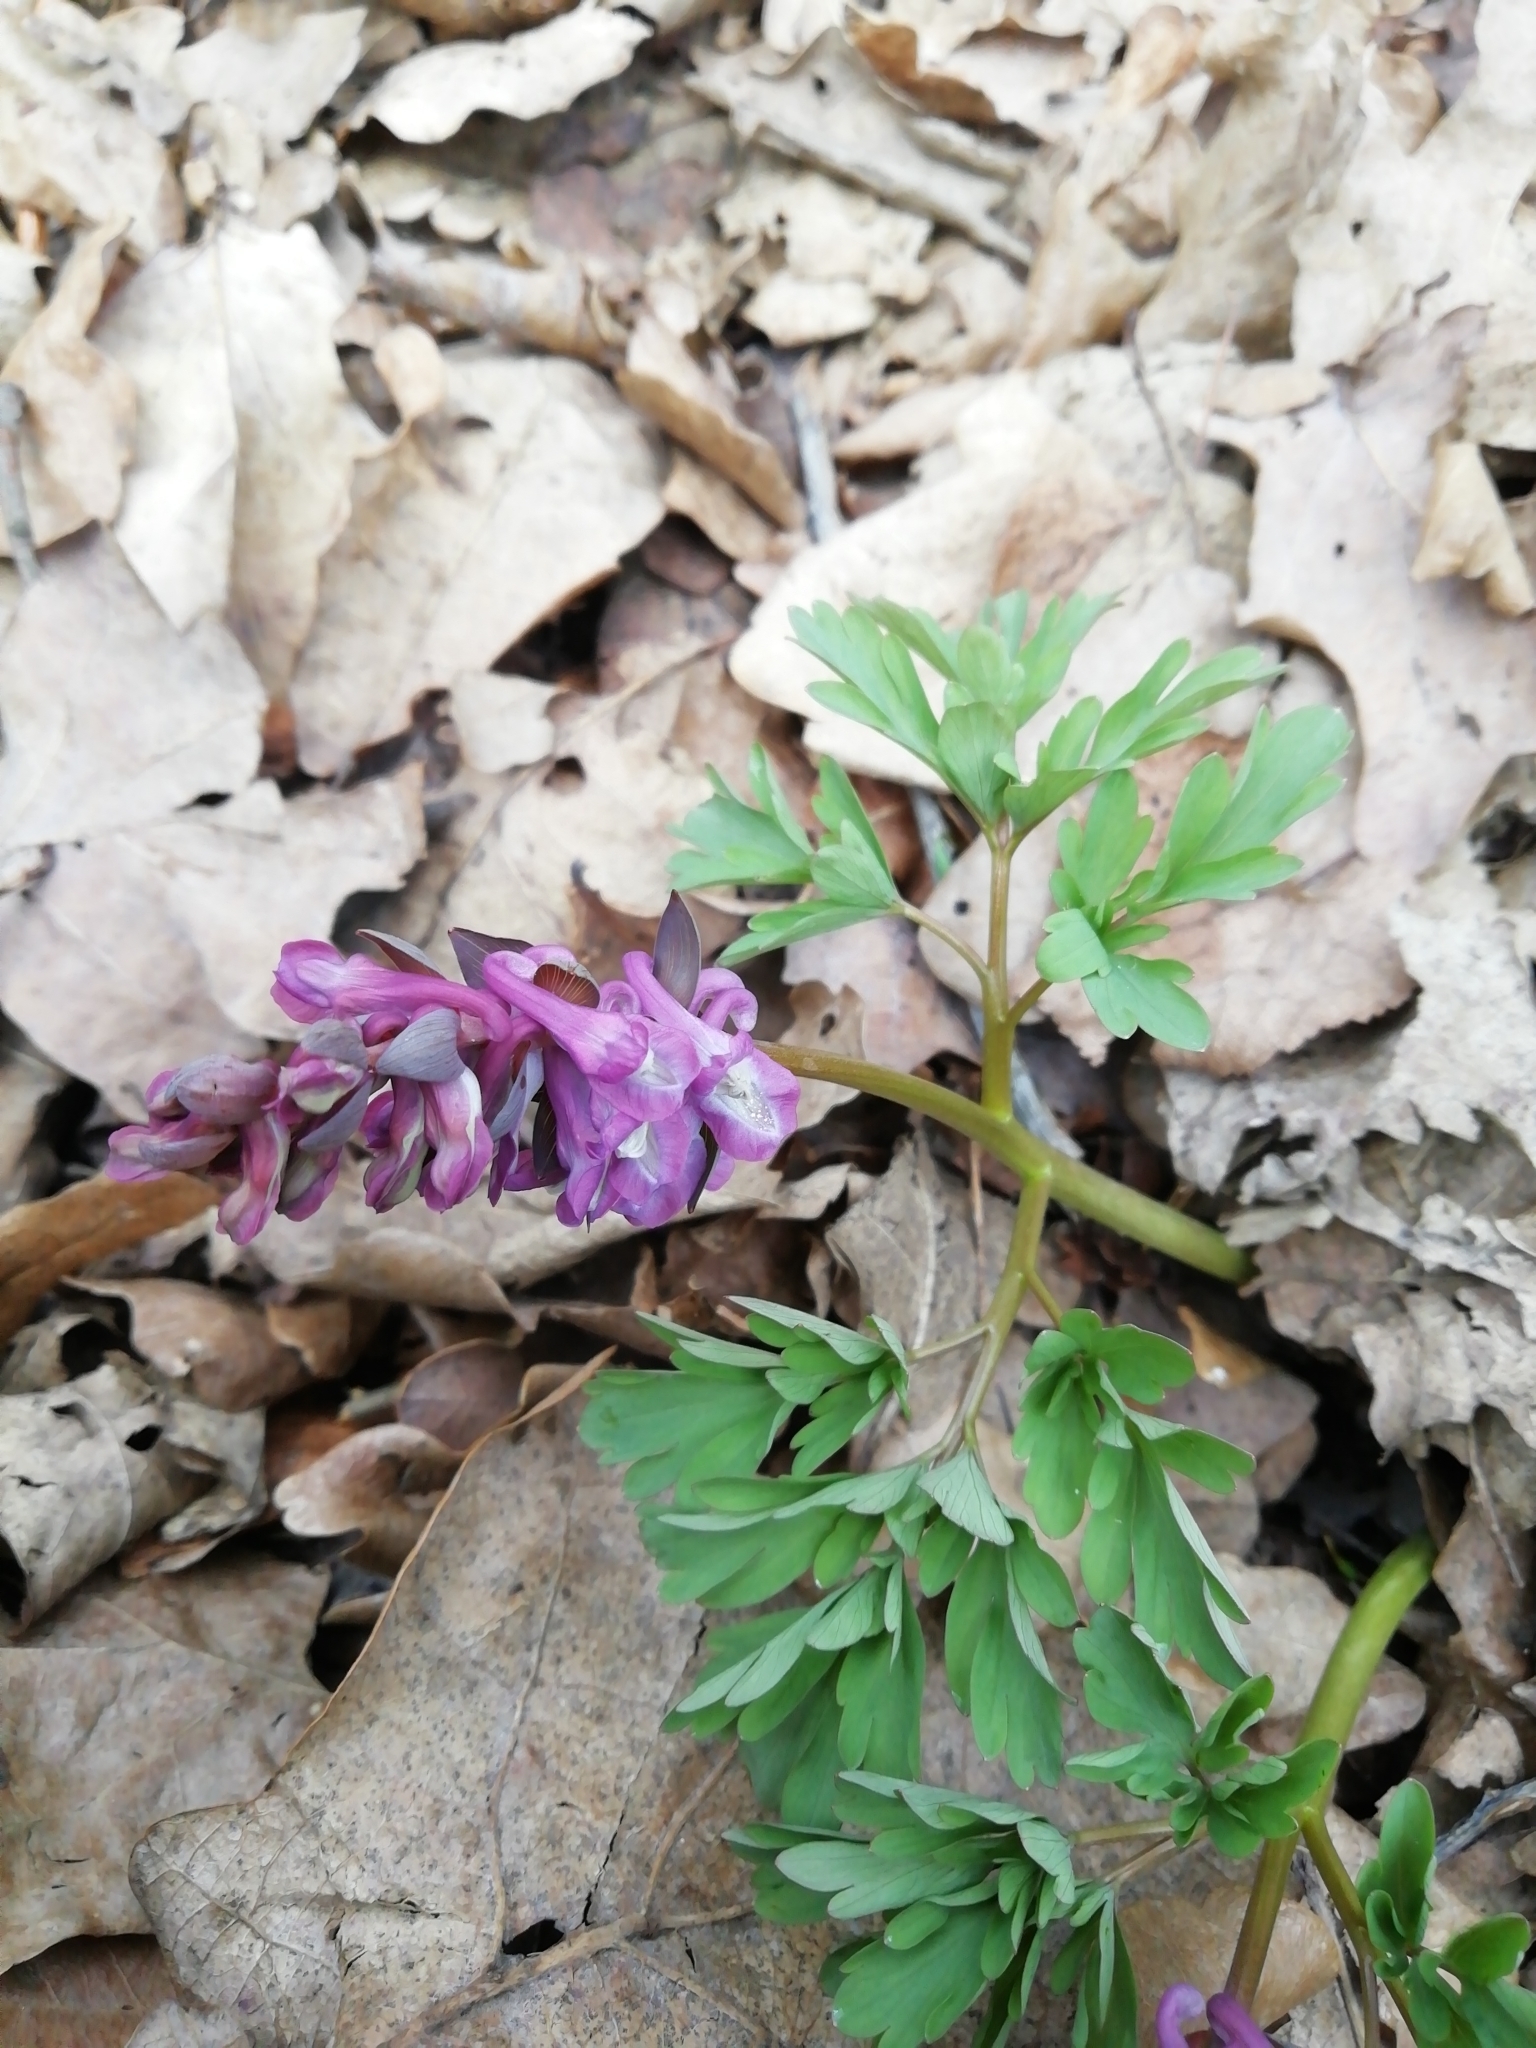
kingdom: Plantae
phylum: Tracheophyta
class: Magnoliopsida
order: Ranunculales
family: Papaveraceae
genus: Corydalis
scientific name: Corydalis cava
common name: Hollowroot
